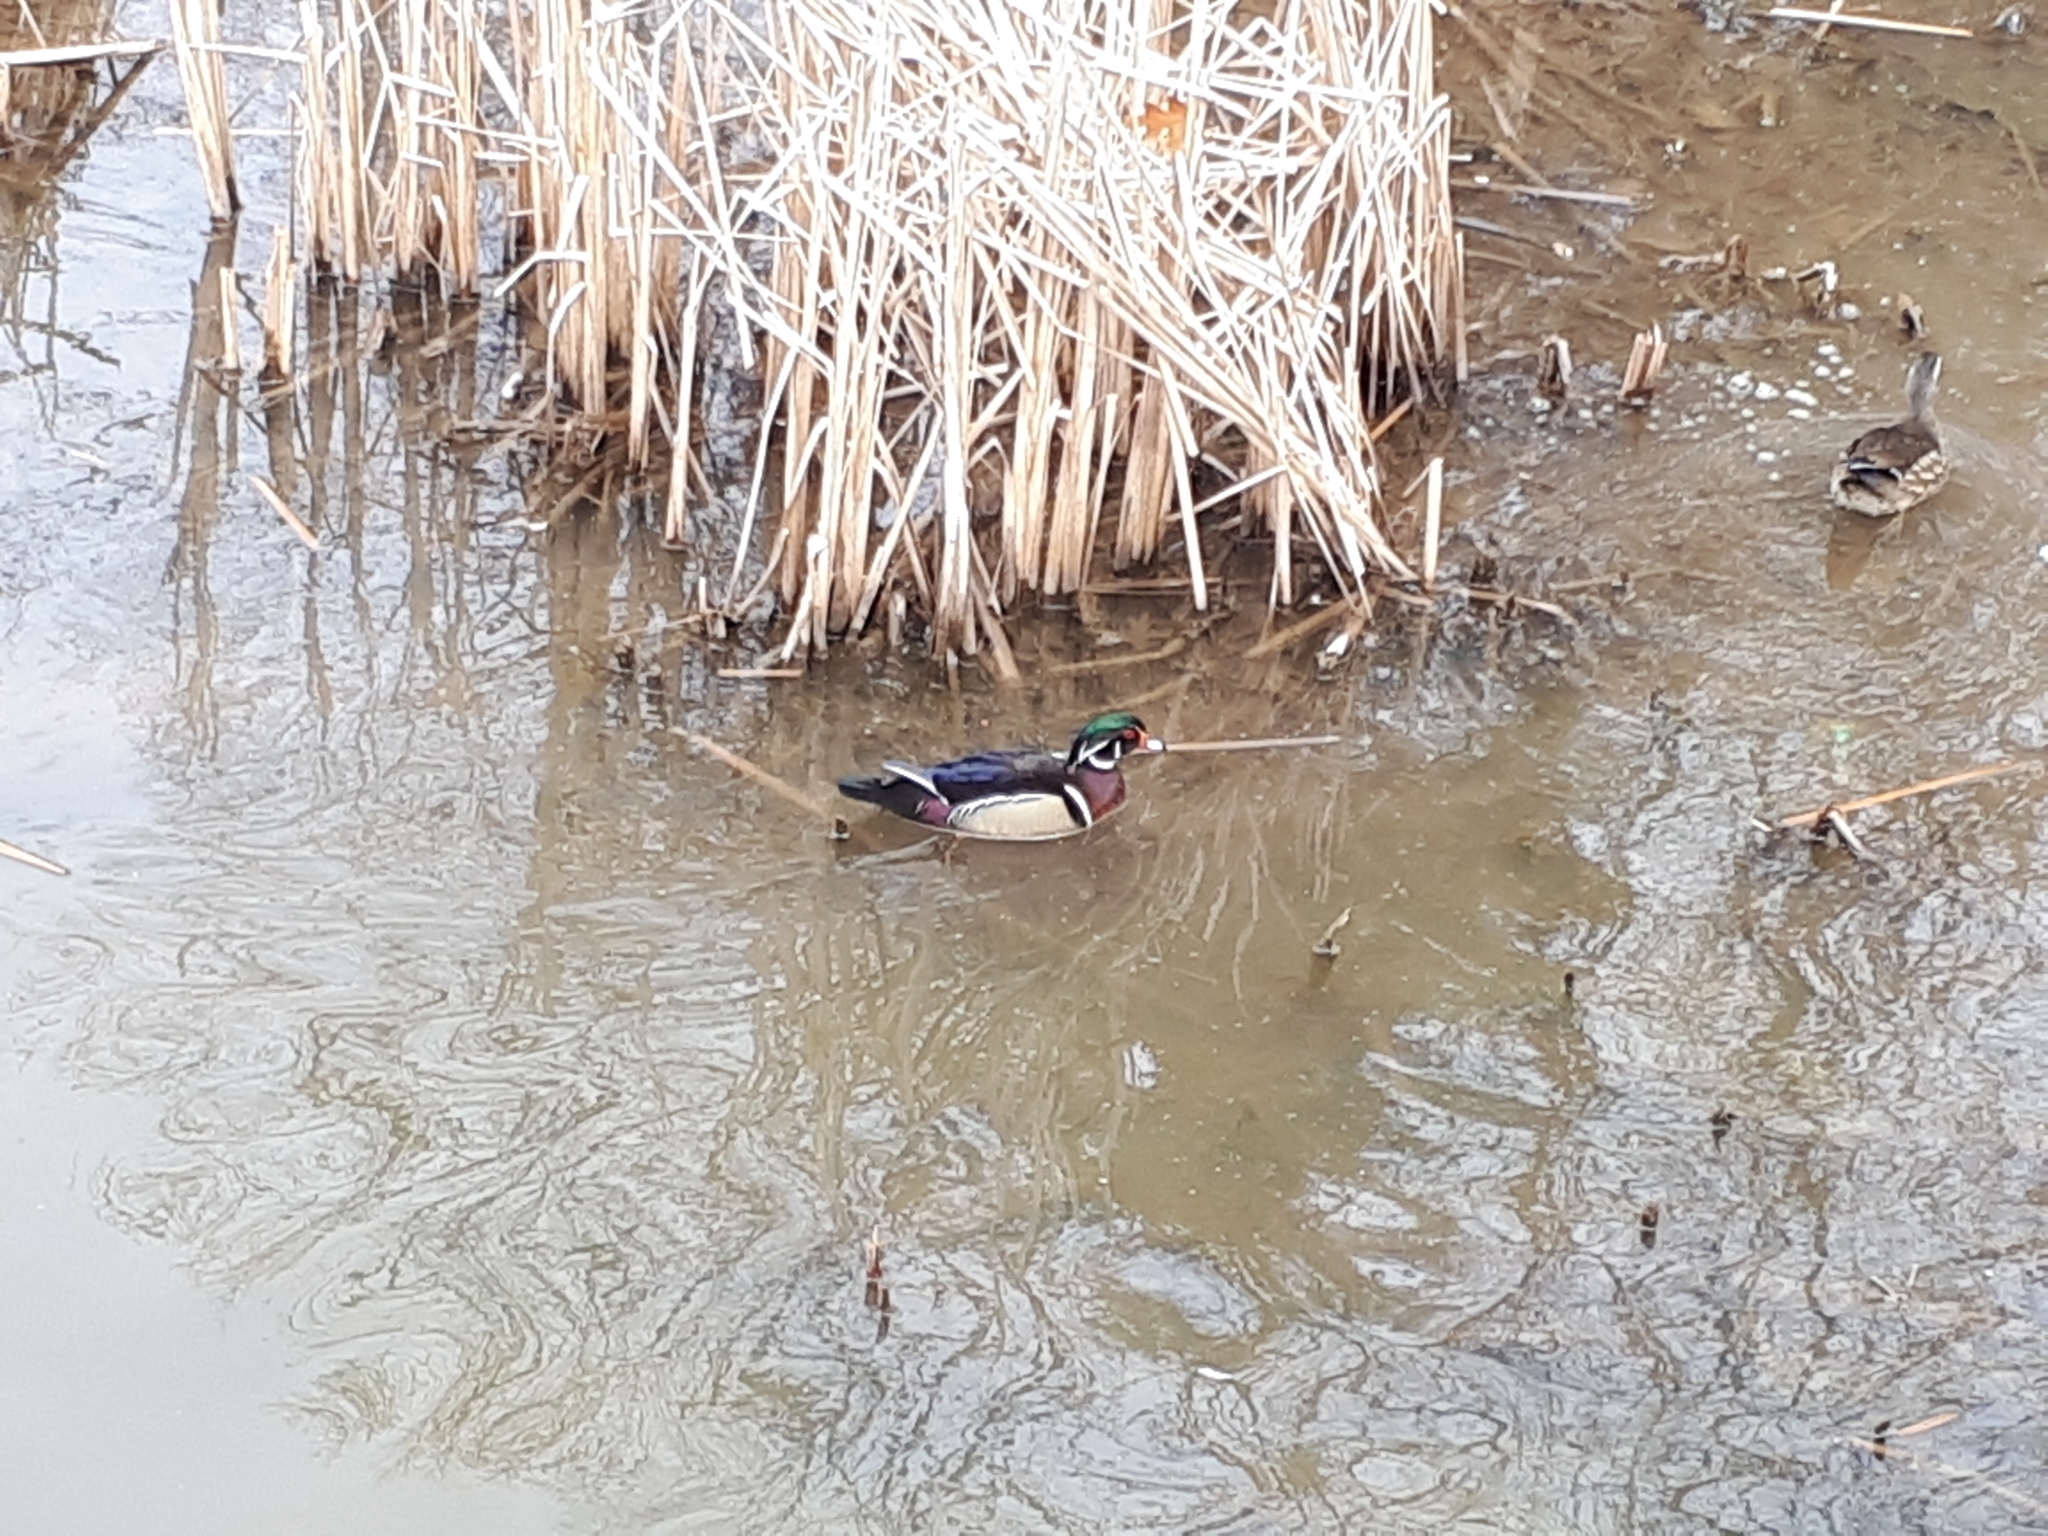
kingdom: Animalia
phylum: Chordata
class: Aves
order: Anseriformes
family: Anatidae
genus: Aix
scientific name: Aix sponsa
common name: Wood duck
